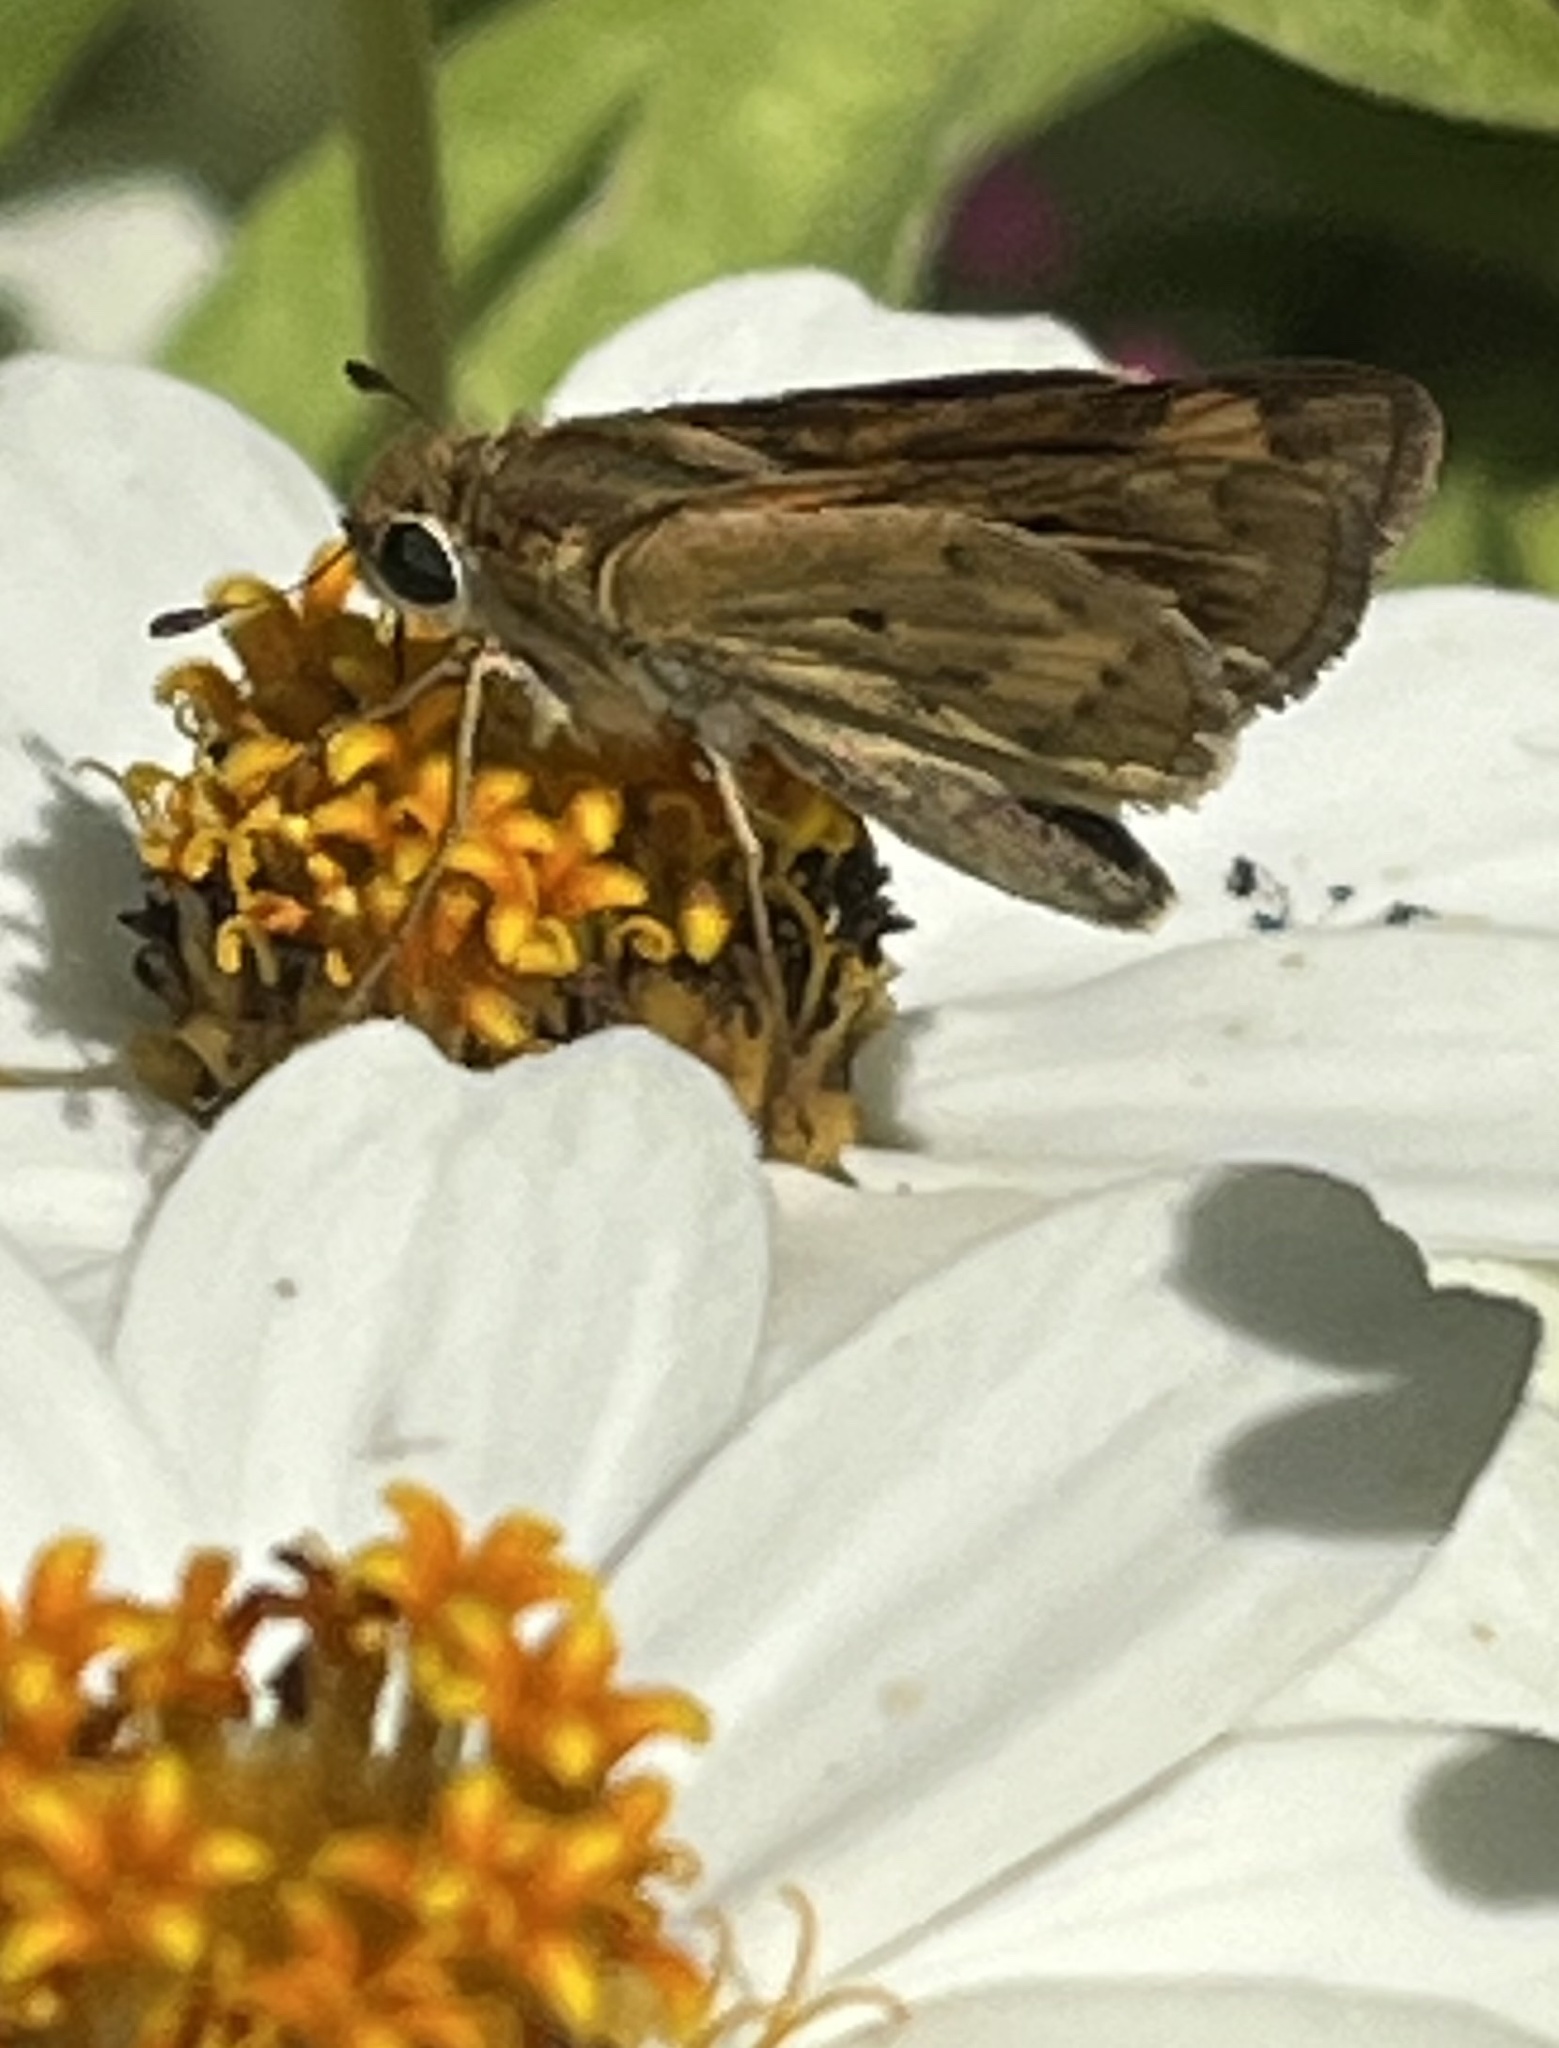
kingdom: Animalia
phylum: Arthropoda
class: Insecta
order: Lepidoptera
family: Hesperiidae
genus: Hylephila
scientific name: Hylephila phyleus
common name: Fiery skipper
